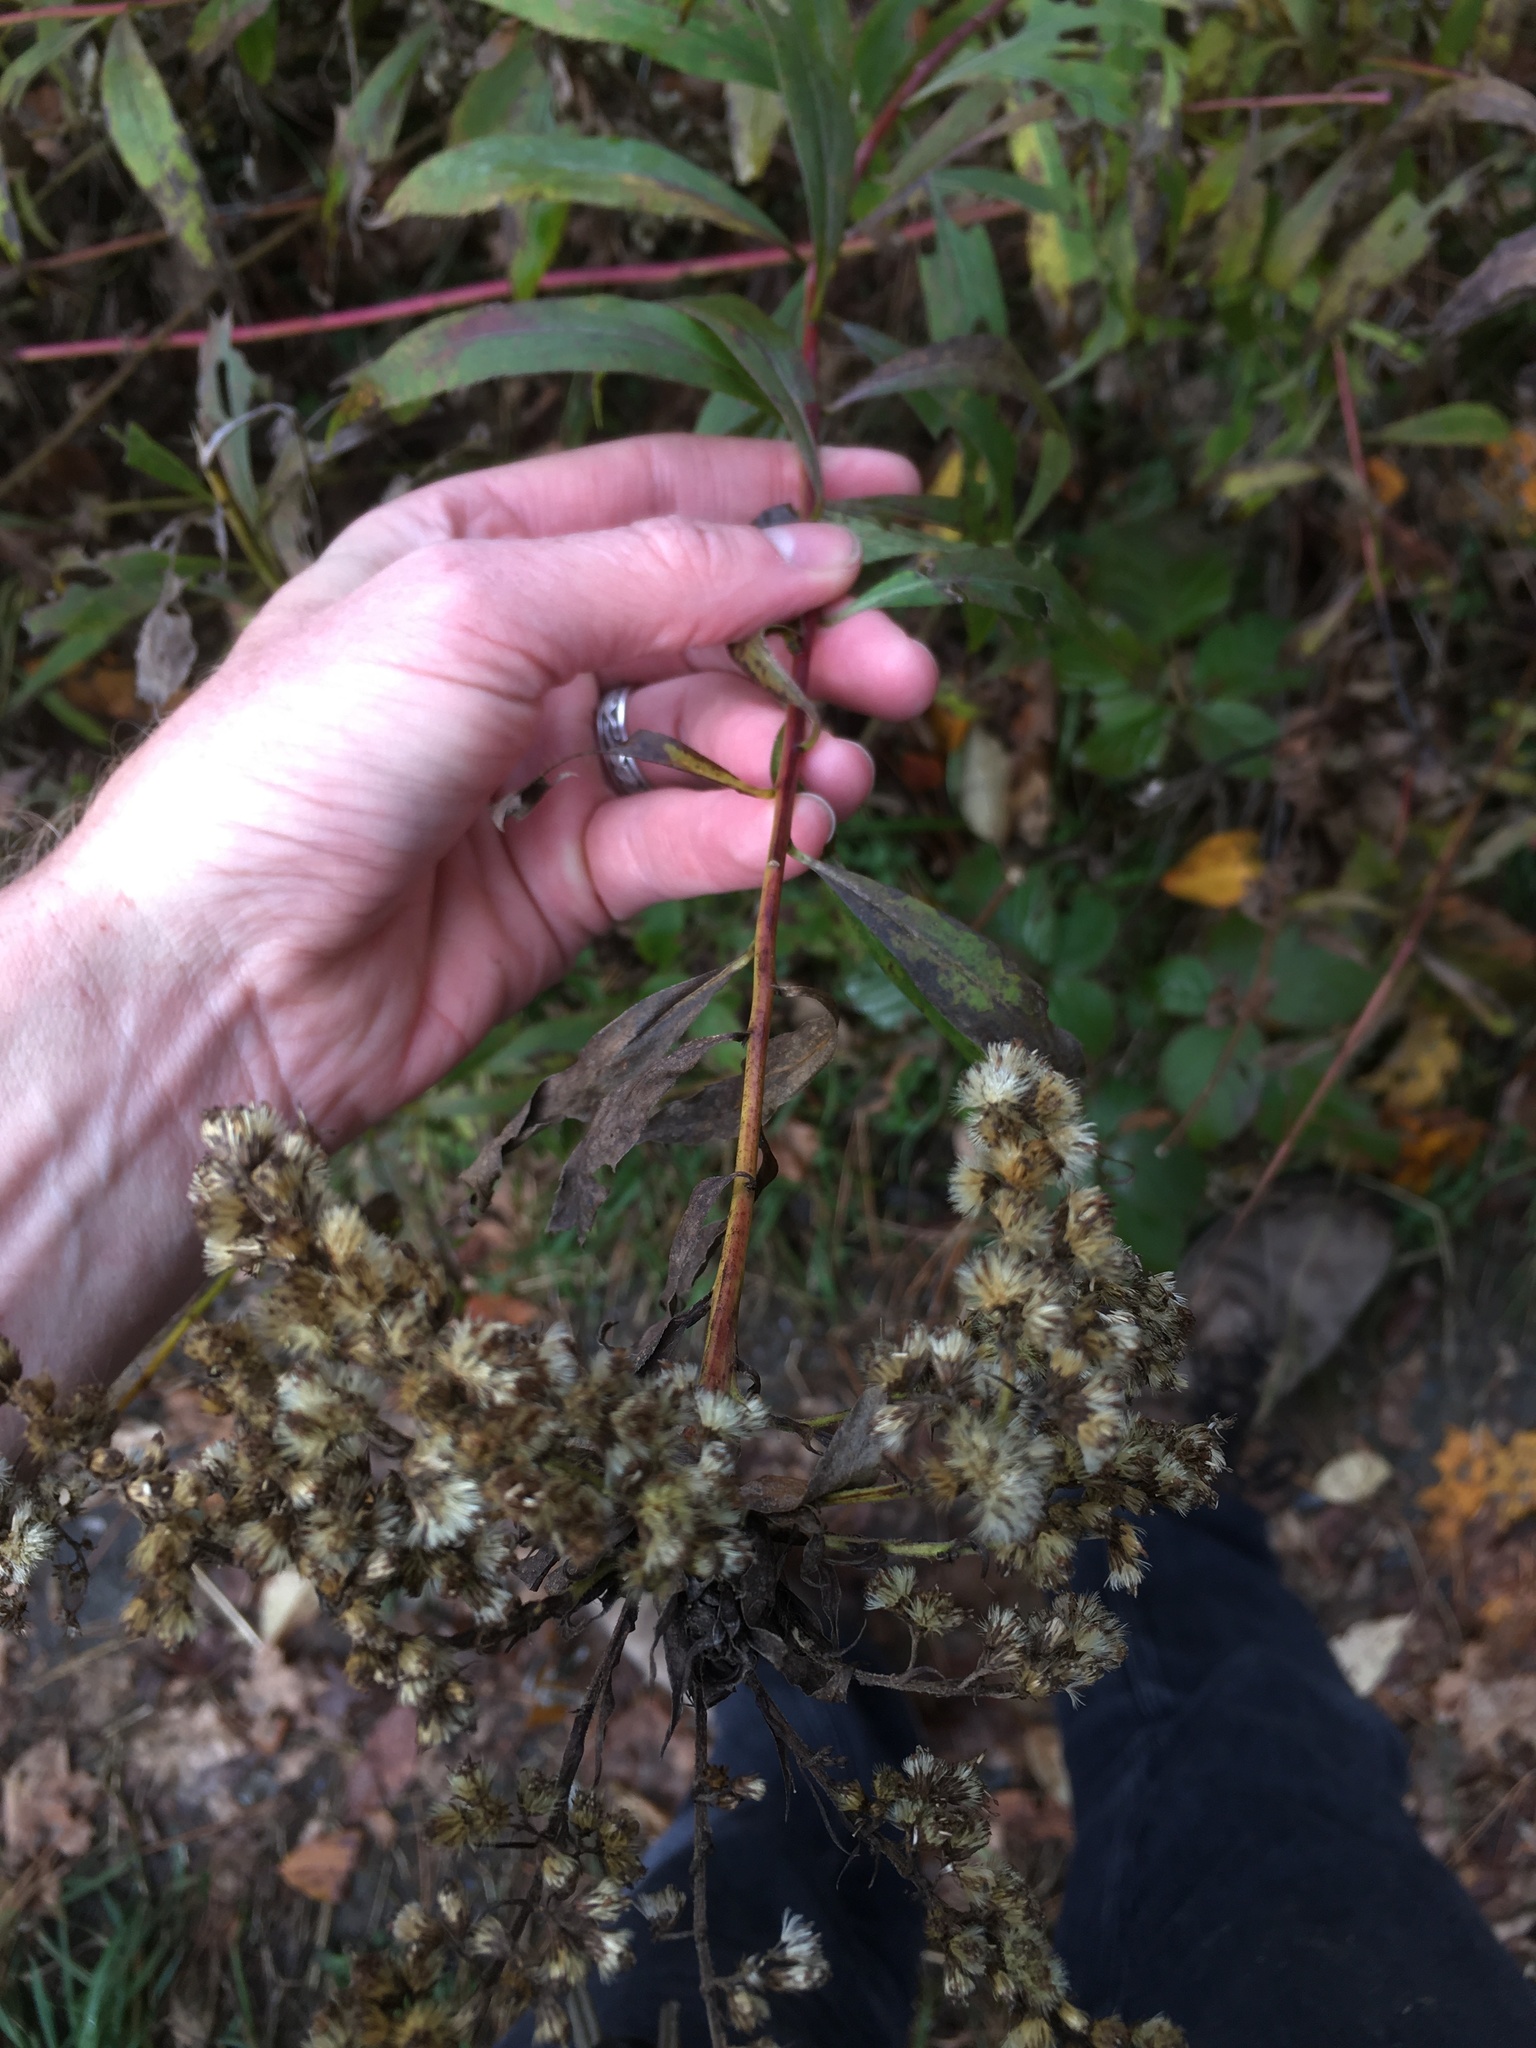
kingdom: Plantae
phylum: Tracheophyta
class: Magnoliopsida
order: Asterales
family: Asteraceae
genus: Solidago
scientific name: Solidago gigantea
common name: Giant goldenrod
